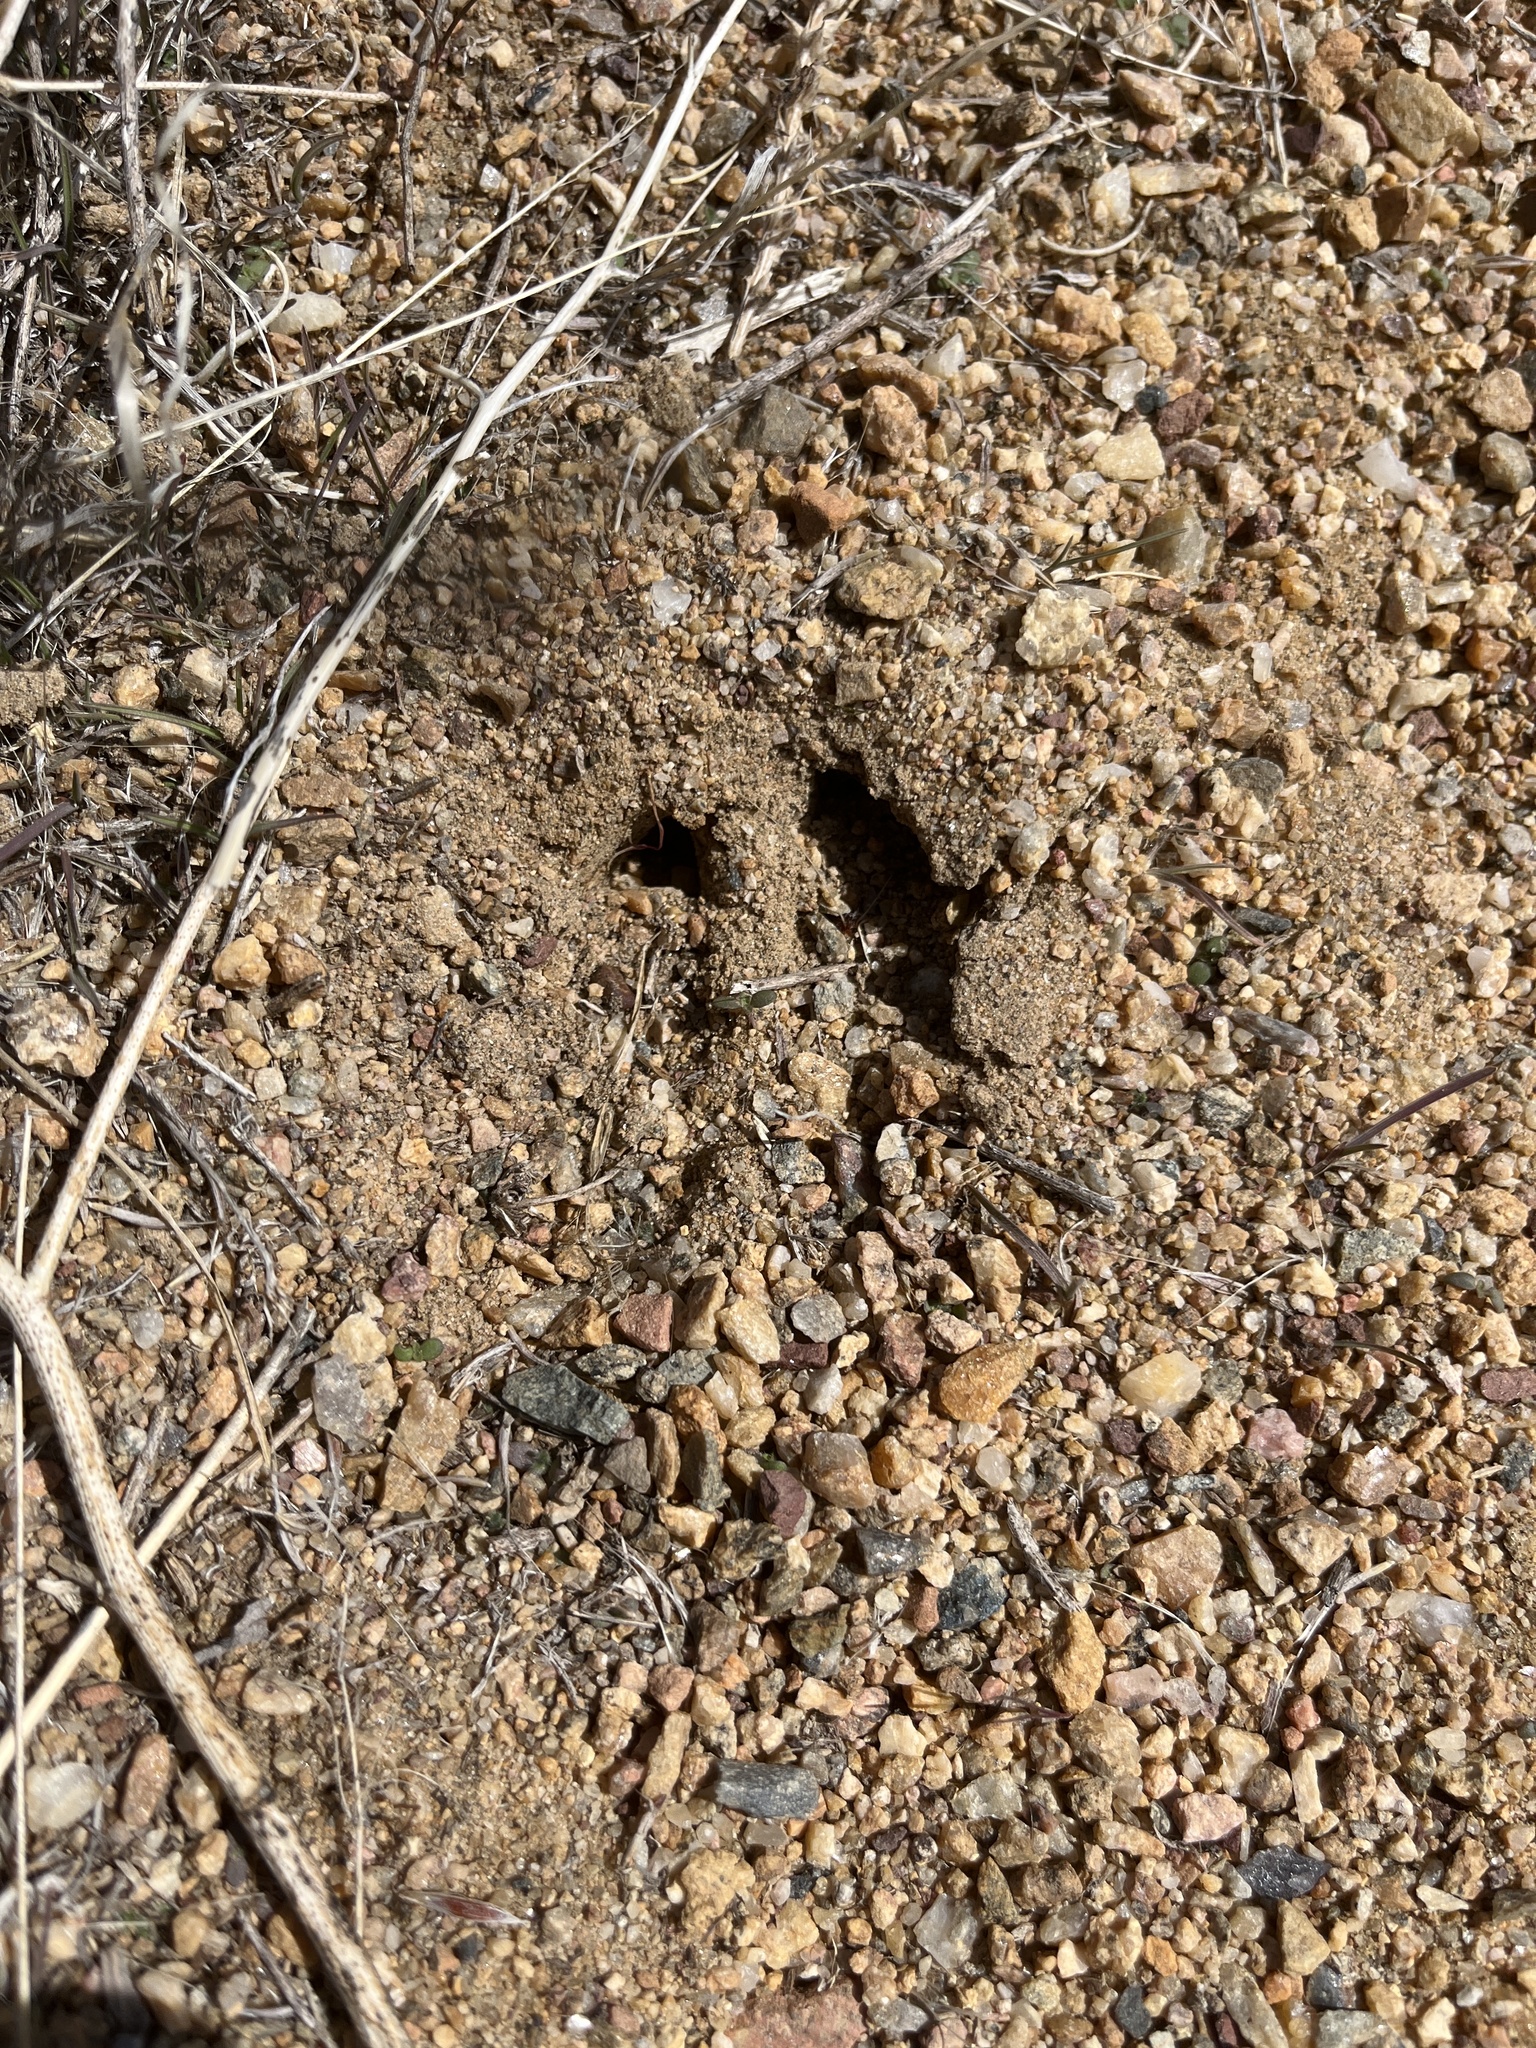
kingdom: Animalia
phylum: Chordata
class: Mammalia
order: Artiodactyla
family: Cervidae
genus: Odocoileus
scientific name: Odocoileus
